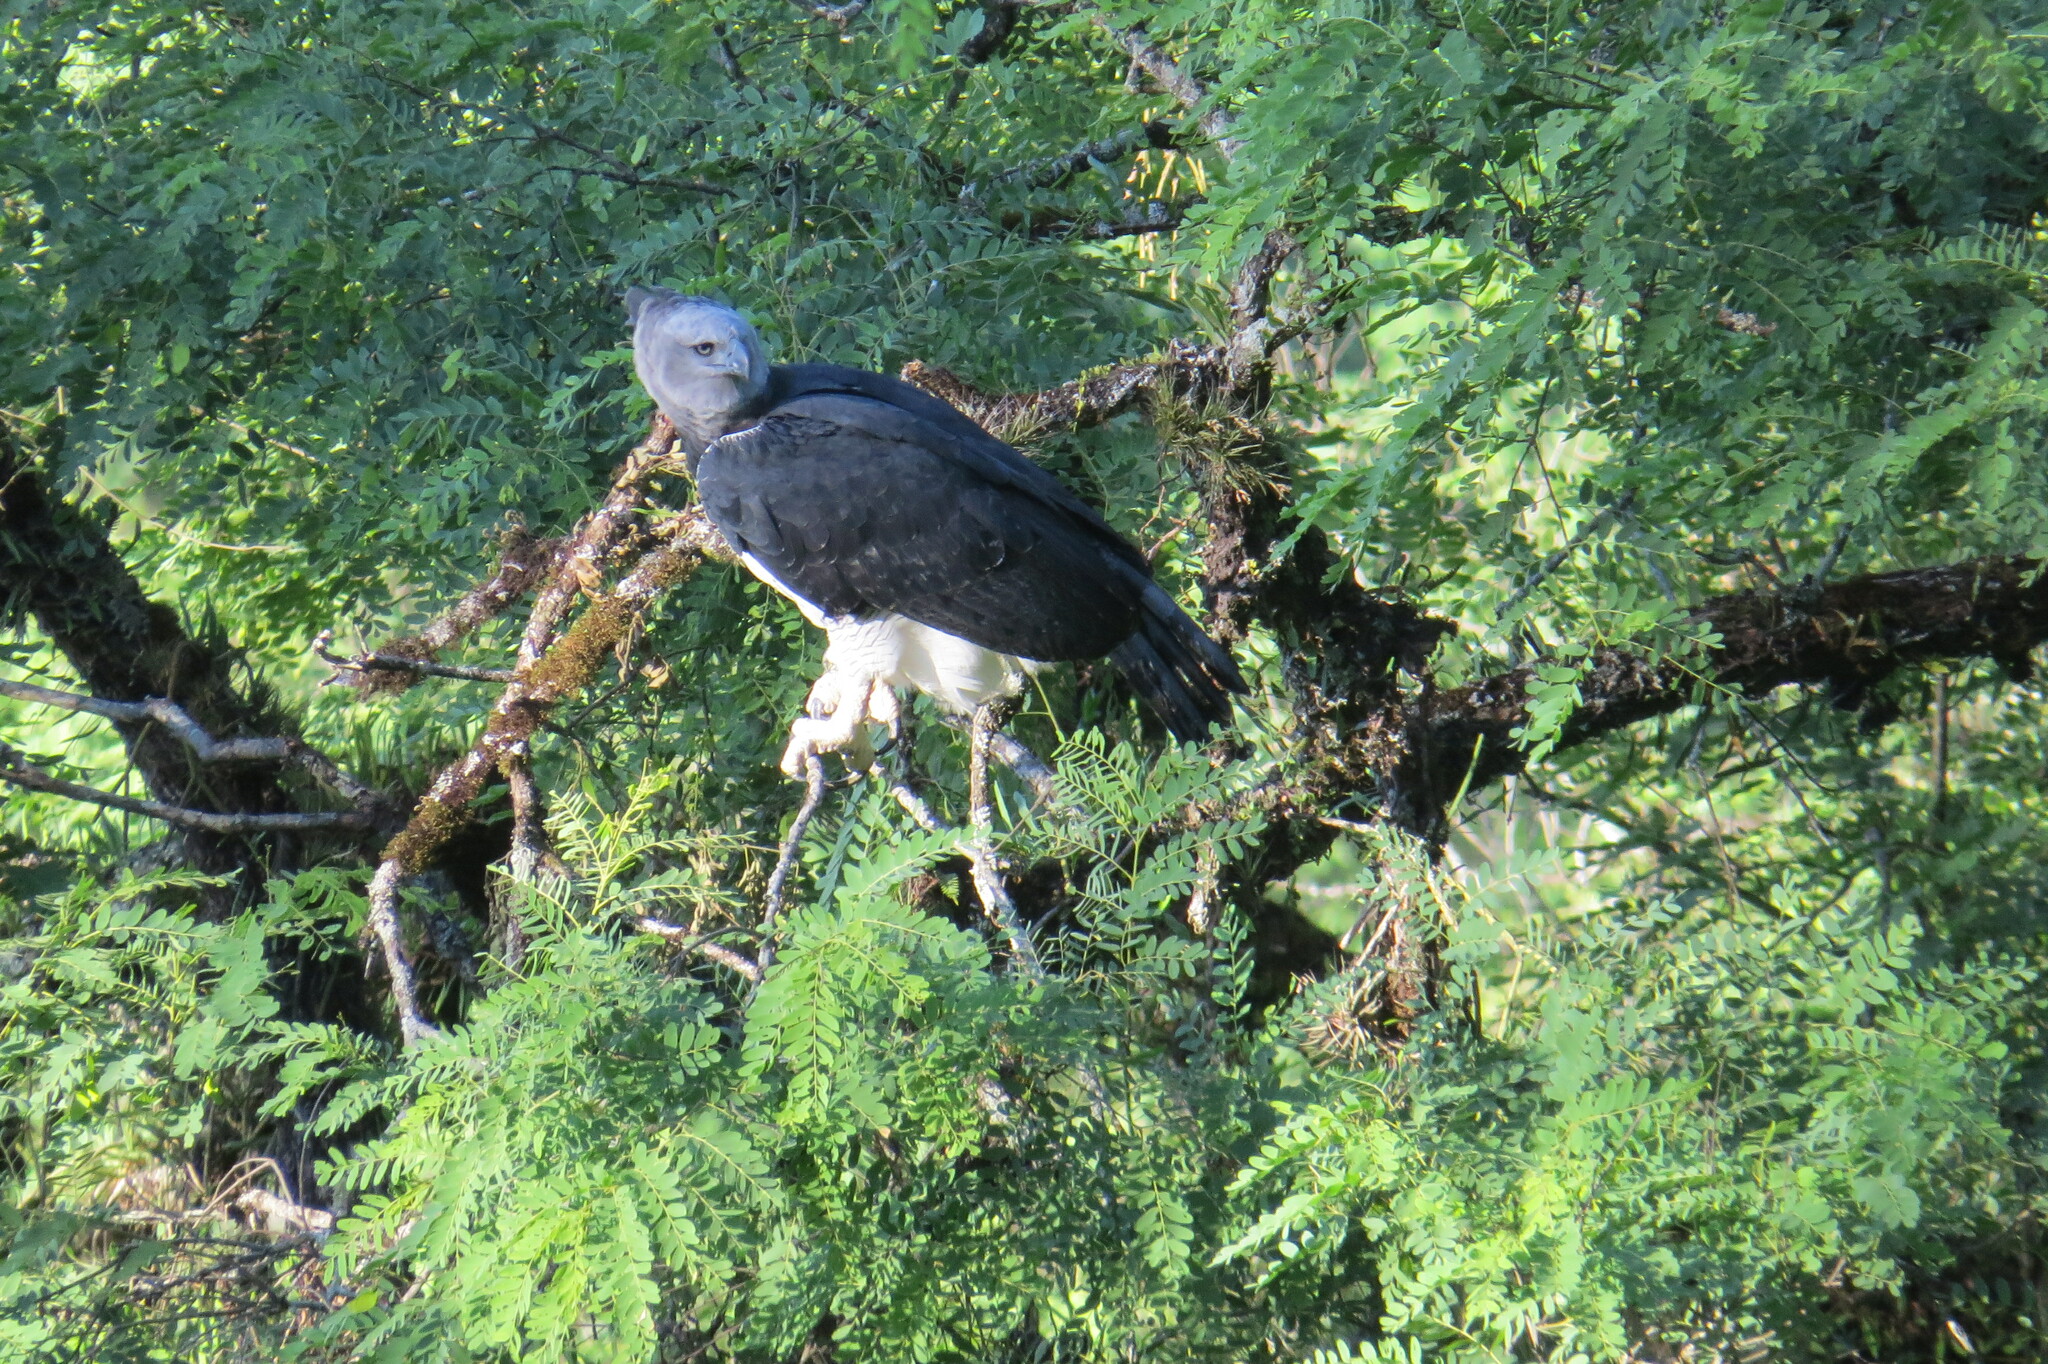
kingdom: Animalia
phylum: Chordata
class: Aves
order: Accipitriformes
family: Accipitridae
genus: Harpia
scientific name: Harpia harpyja
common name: Harpy eagle
